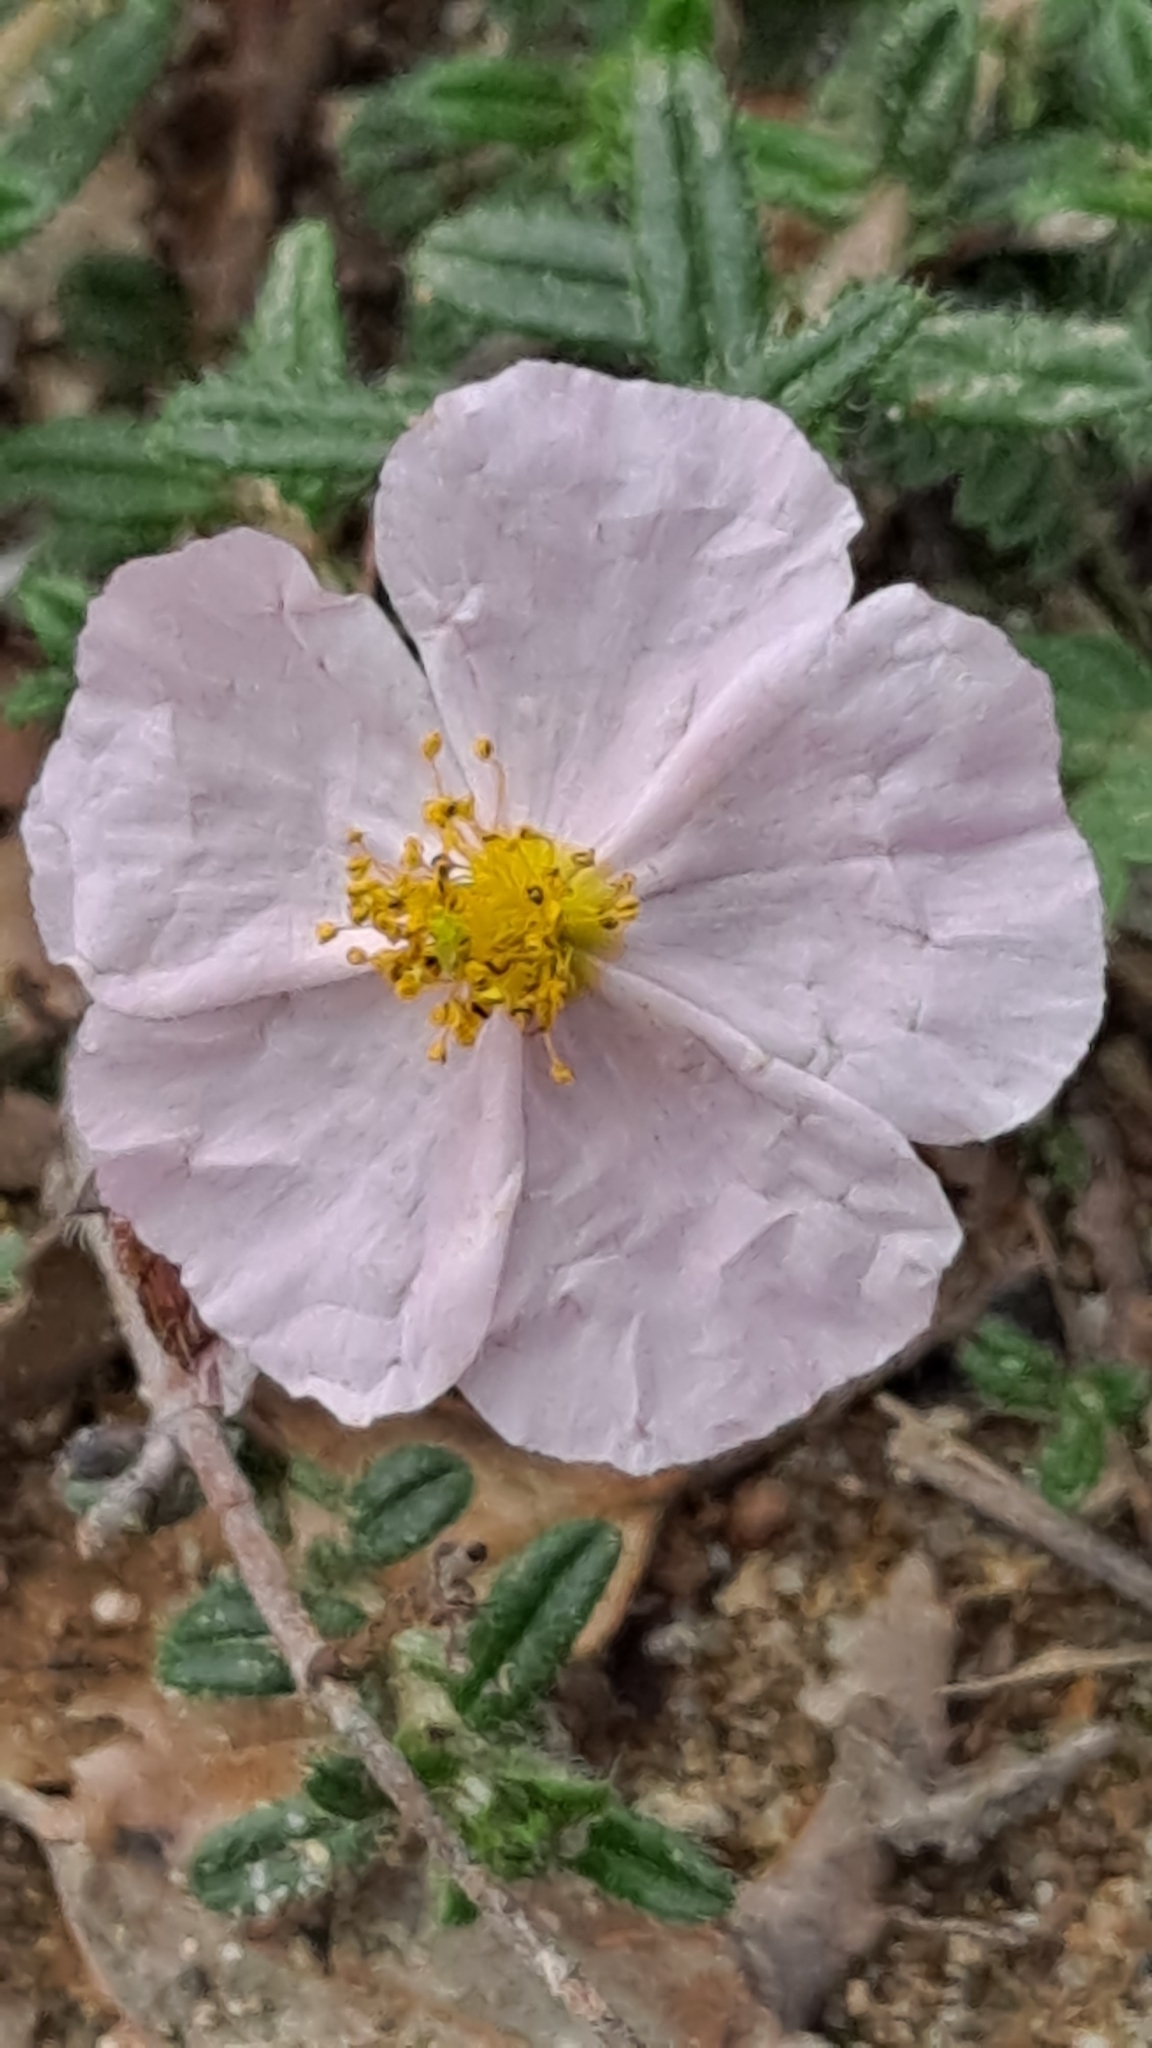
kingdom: Plantae
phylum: Tracheophyta
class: Magnoliopsida
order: Malvales
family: Cistaceae
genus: Helianthemum
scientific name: Helianthemum apenninum
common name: White rock-rose
